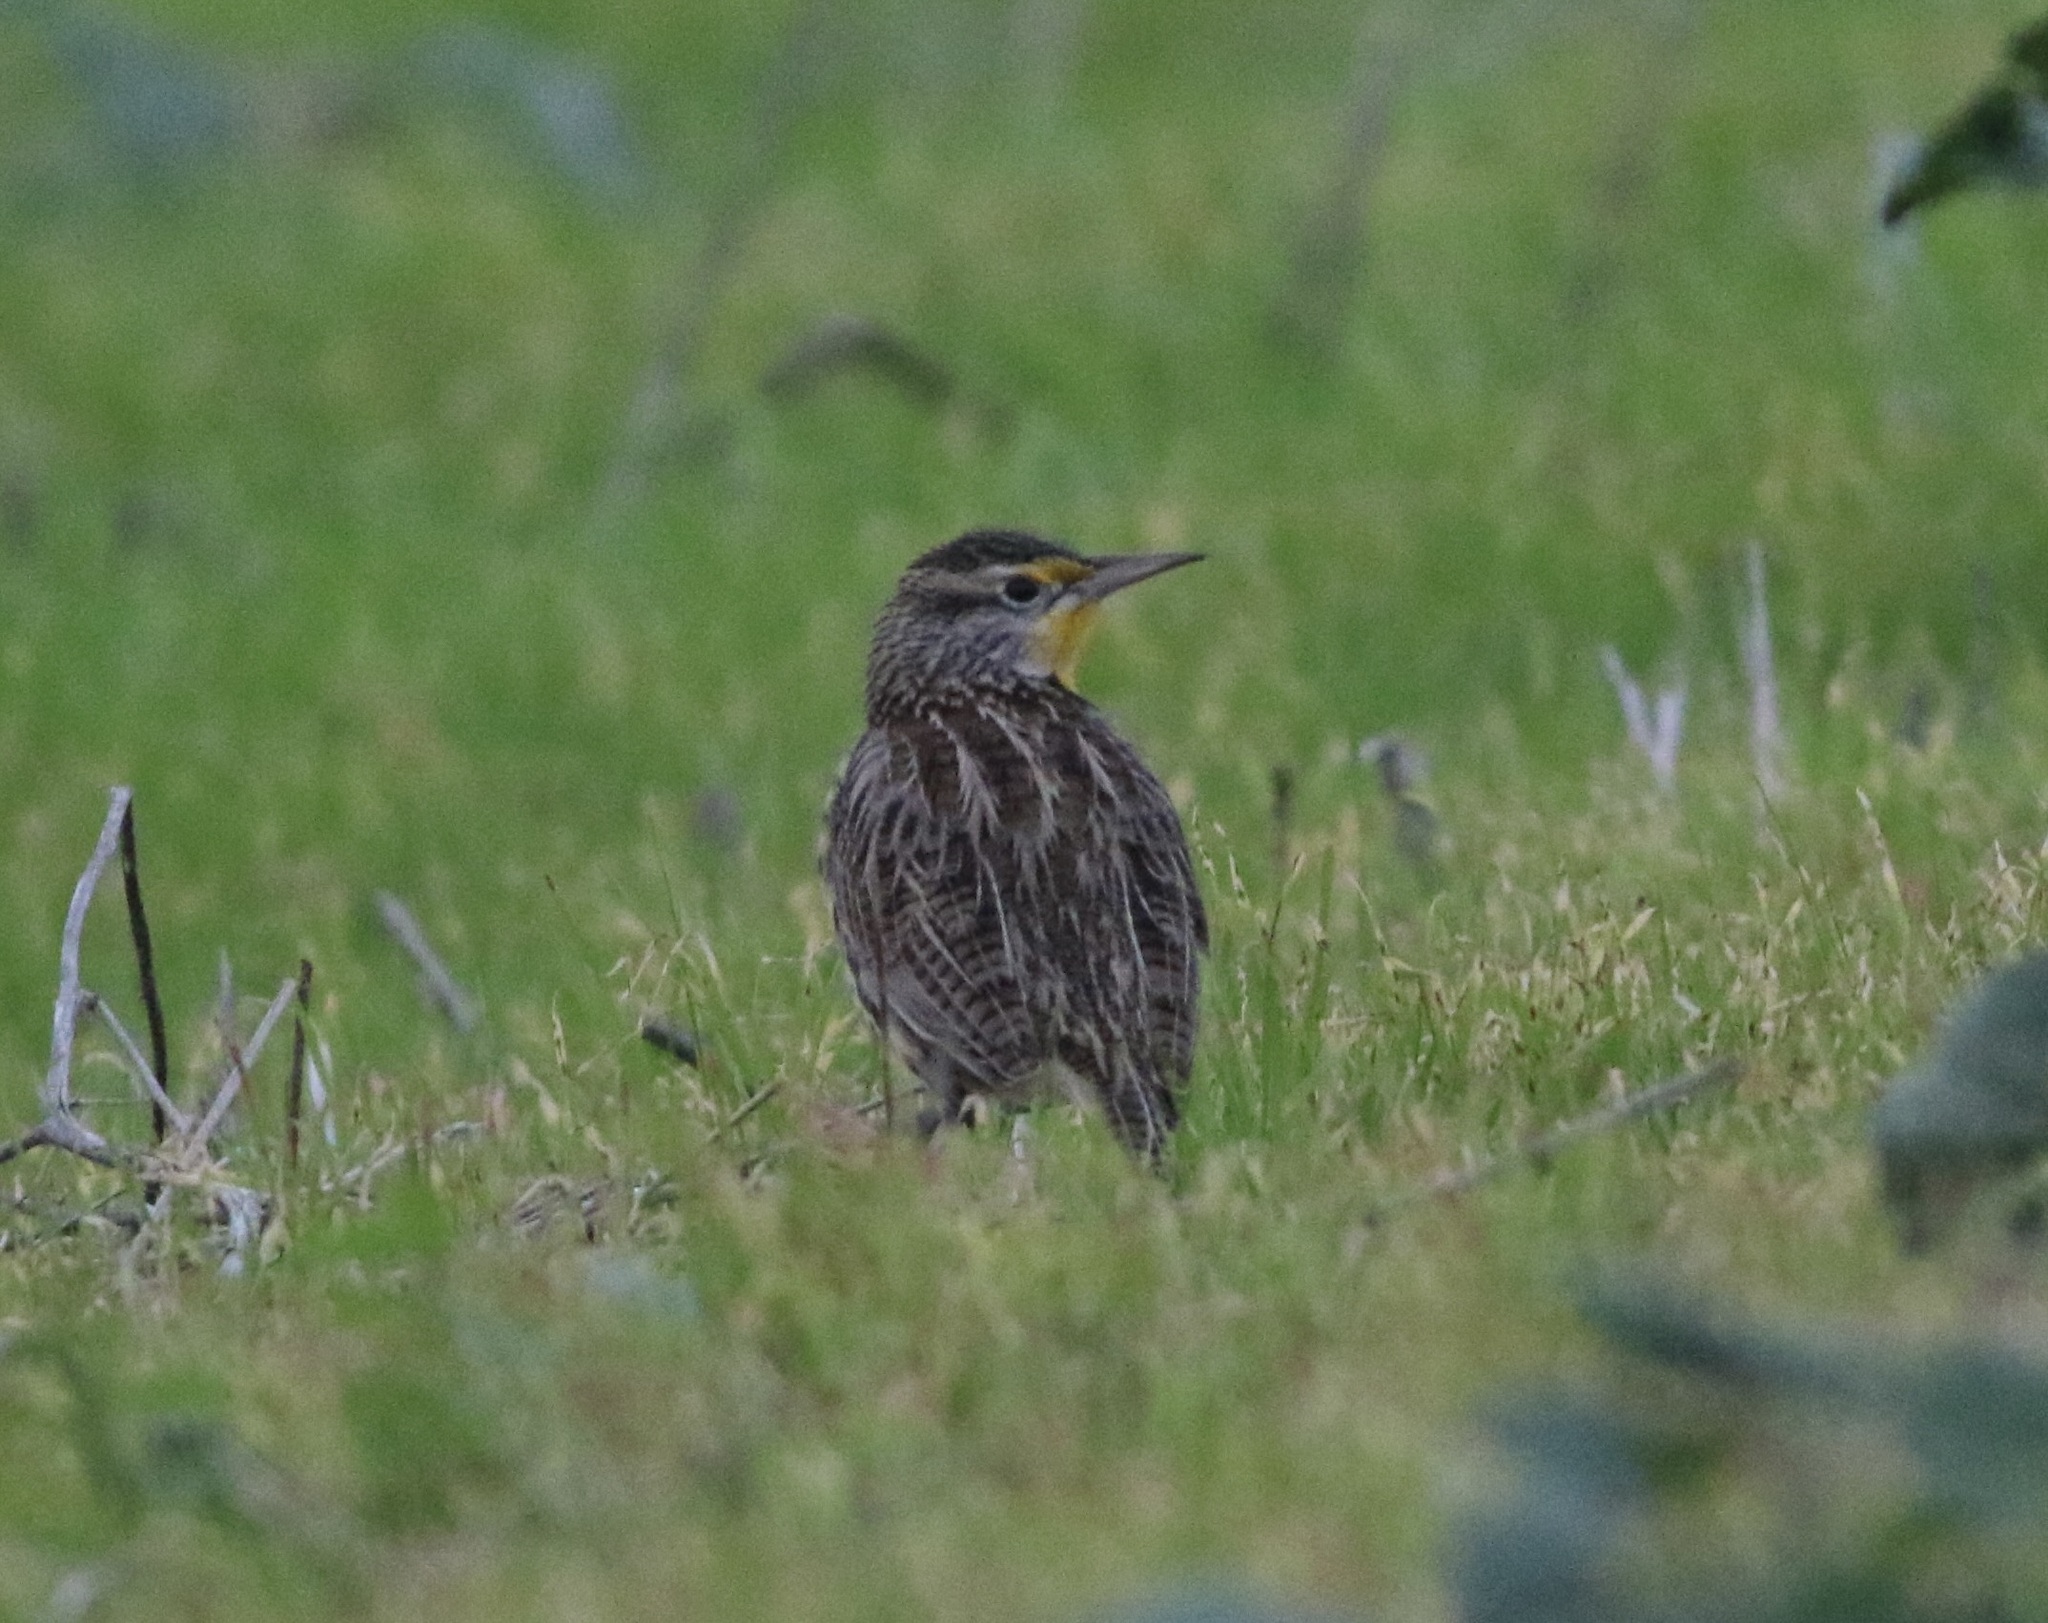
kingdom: Animalia
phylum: Chordata
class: Aves
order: Passeriformes
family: Icteridae
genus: Sturnella
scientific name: Sturnella neglecta
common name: Western meadowlark
